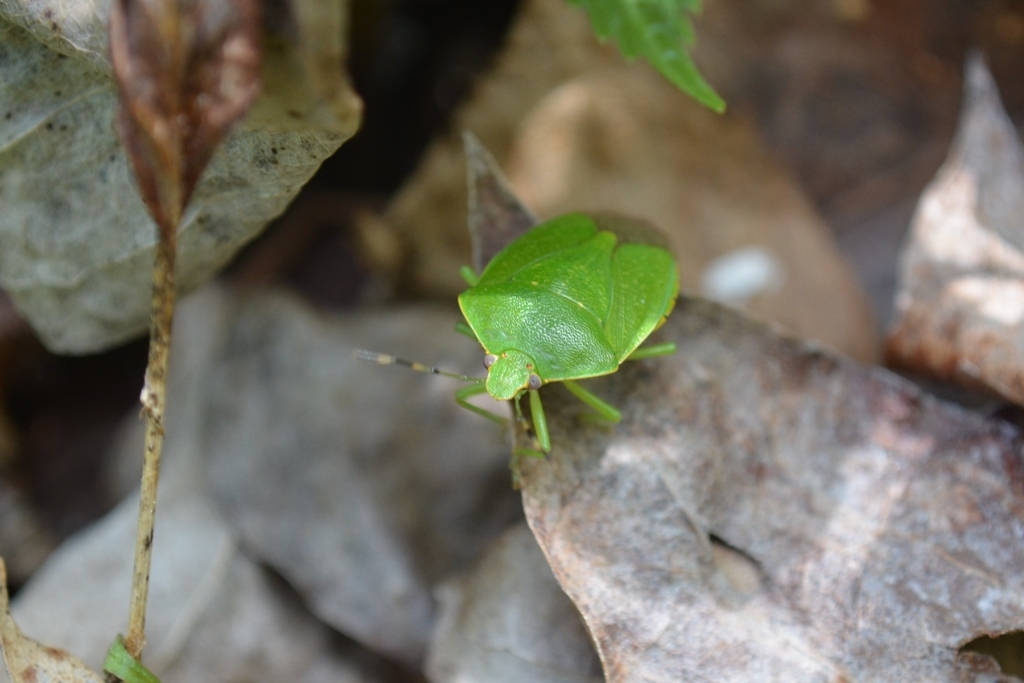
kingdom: Animalia
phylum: Arthropoda
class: Insecta
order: Hemiptera
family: Pentatomidae
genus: Chinavia
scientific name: Chinavia hilaris
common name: Green stink bug
